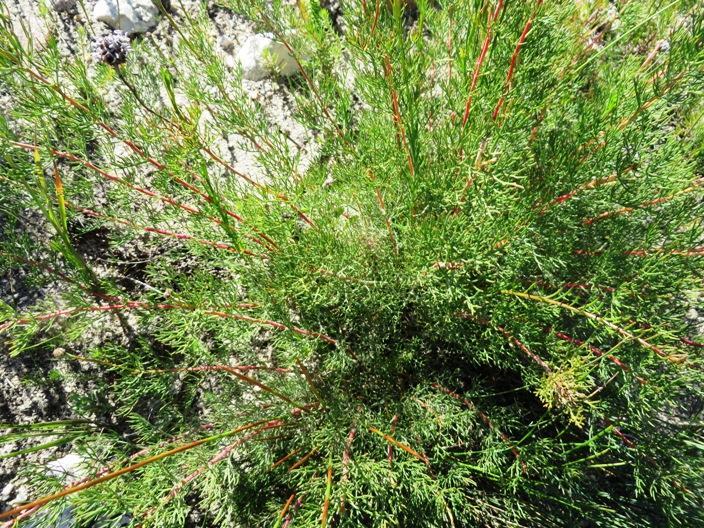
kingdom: Plantae
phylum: Tracheophyta
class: Magnoliopsida
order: Proteales
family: Proteaceae
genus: Serruria
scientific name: Serruria gremialis
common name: Riviersonderend spiderhead
